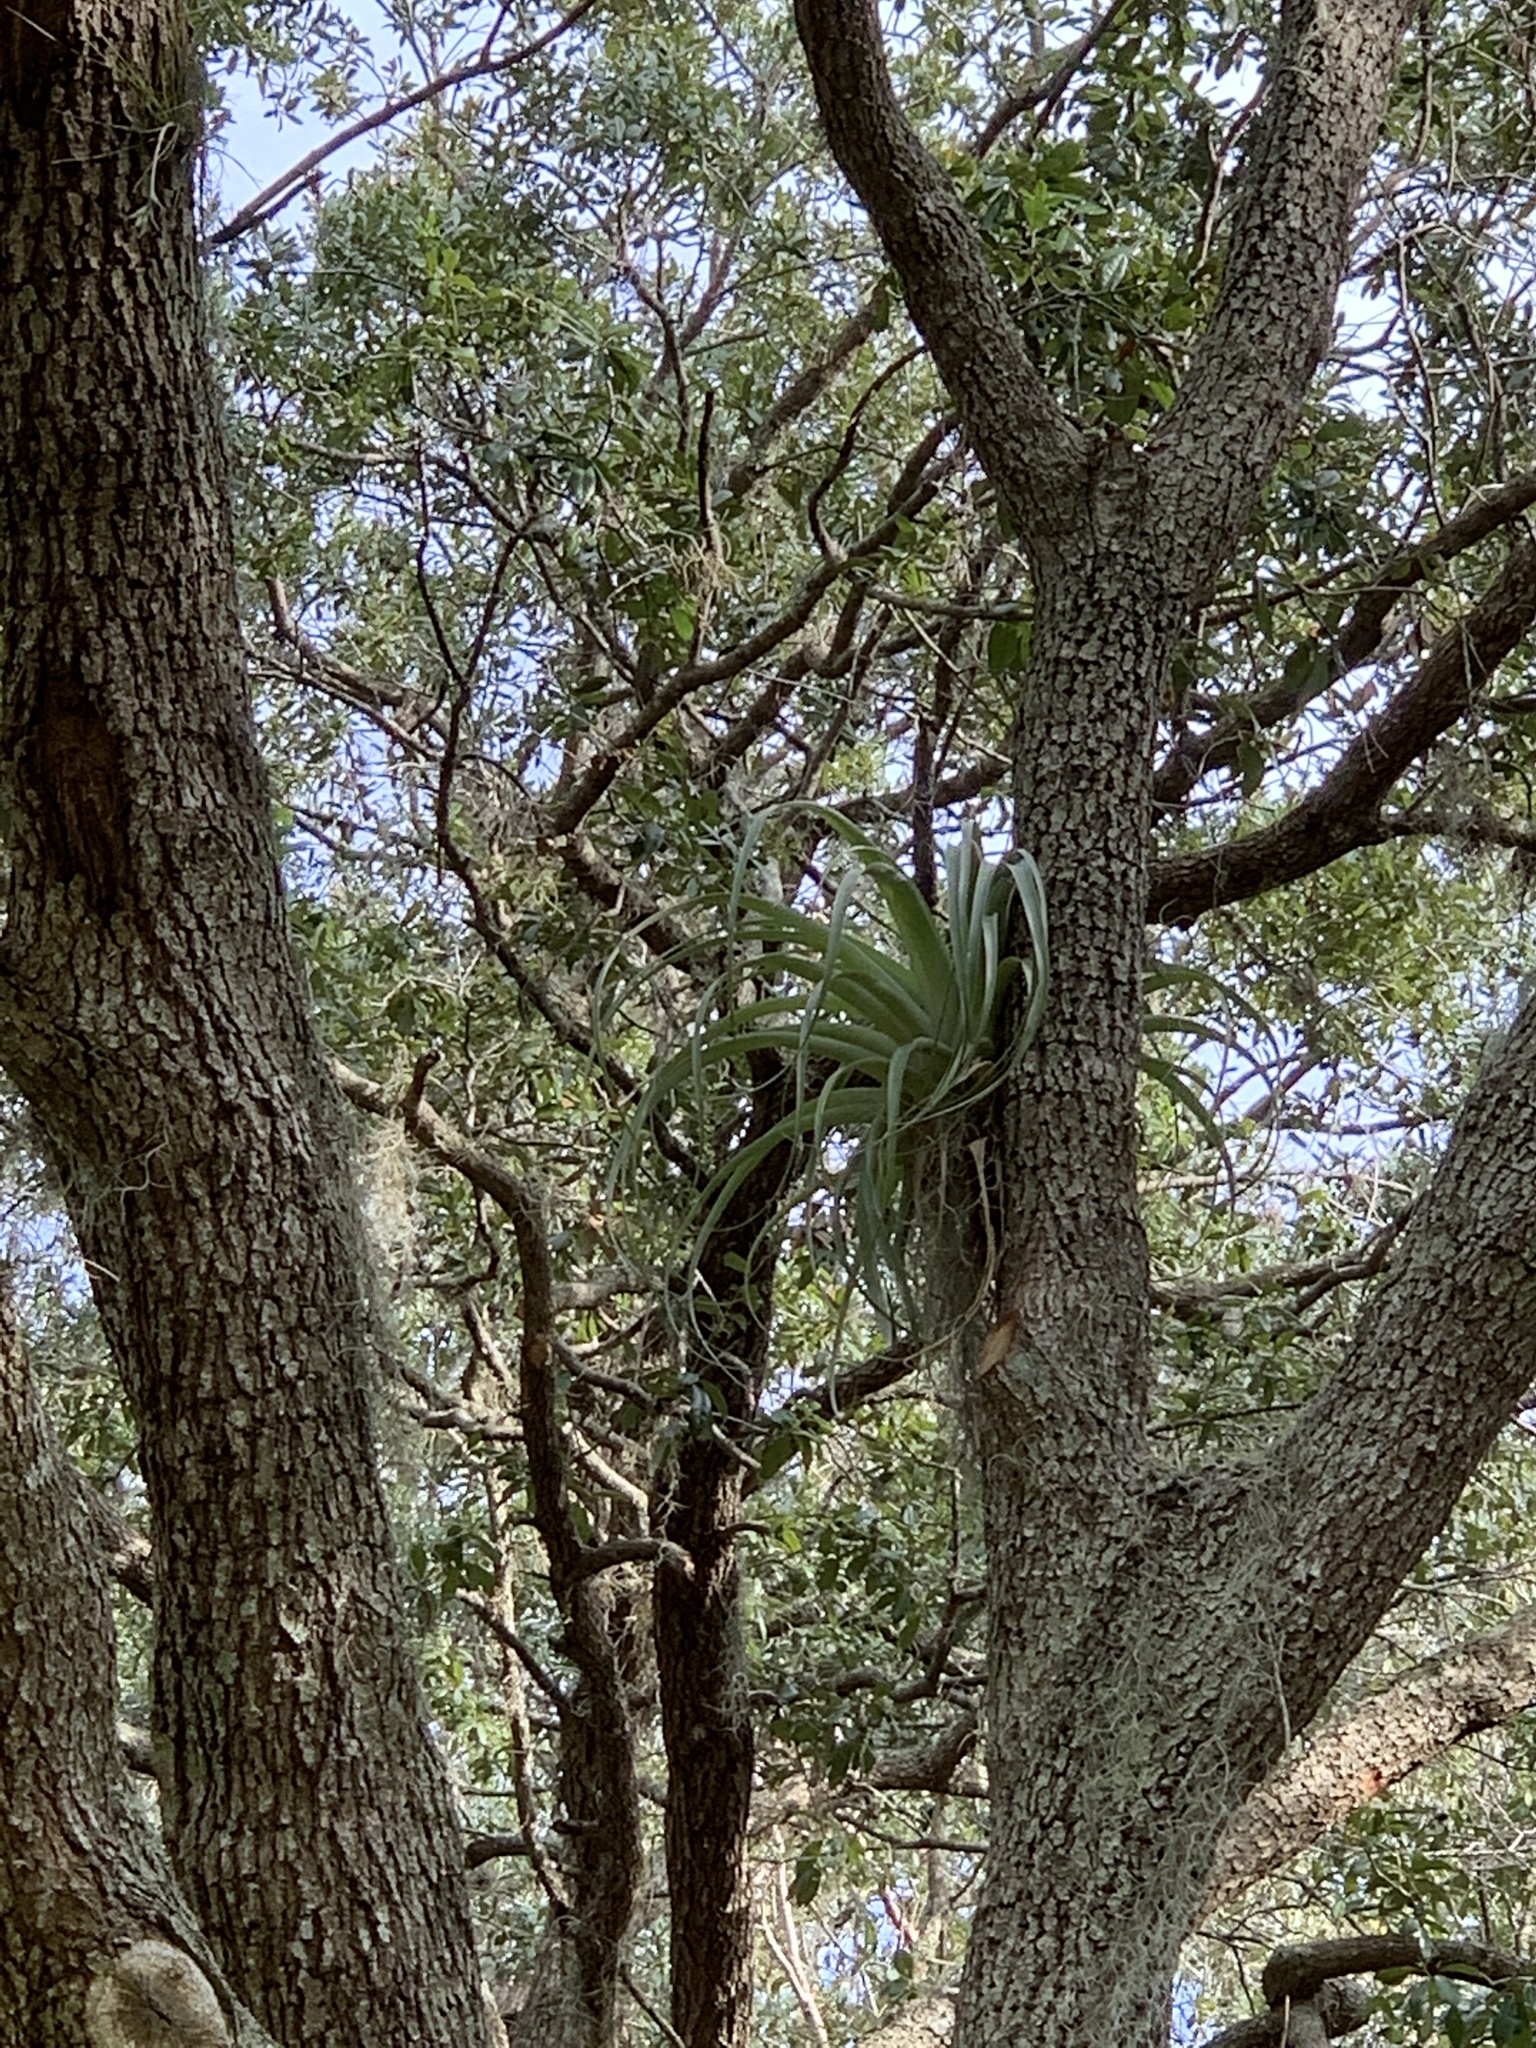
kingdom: Plantae
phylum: Tracheophyta
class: Liliopsida
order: Poales
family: Bromeliaceae
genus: Tillandsia
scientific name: Tillandsia utriculata
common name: Wild pine
